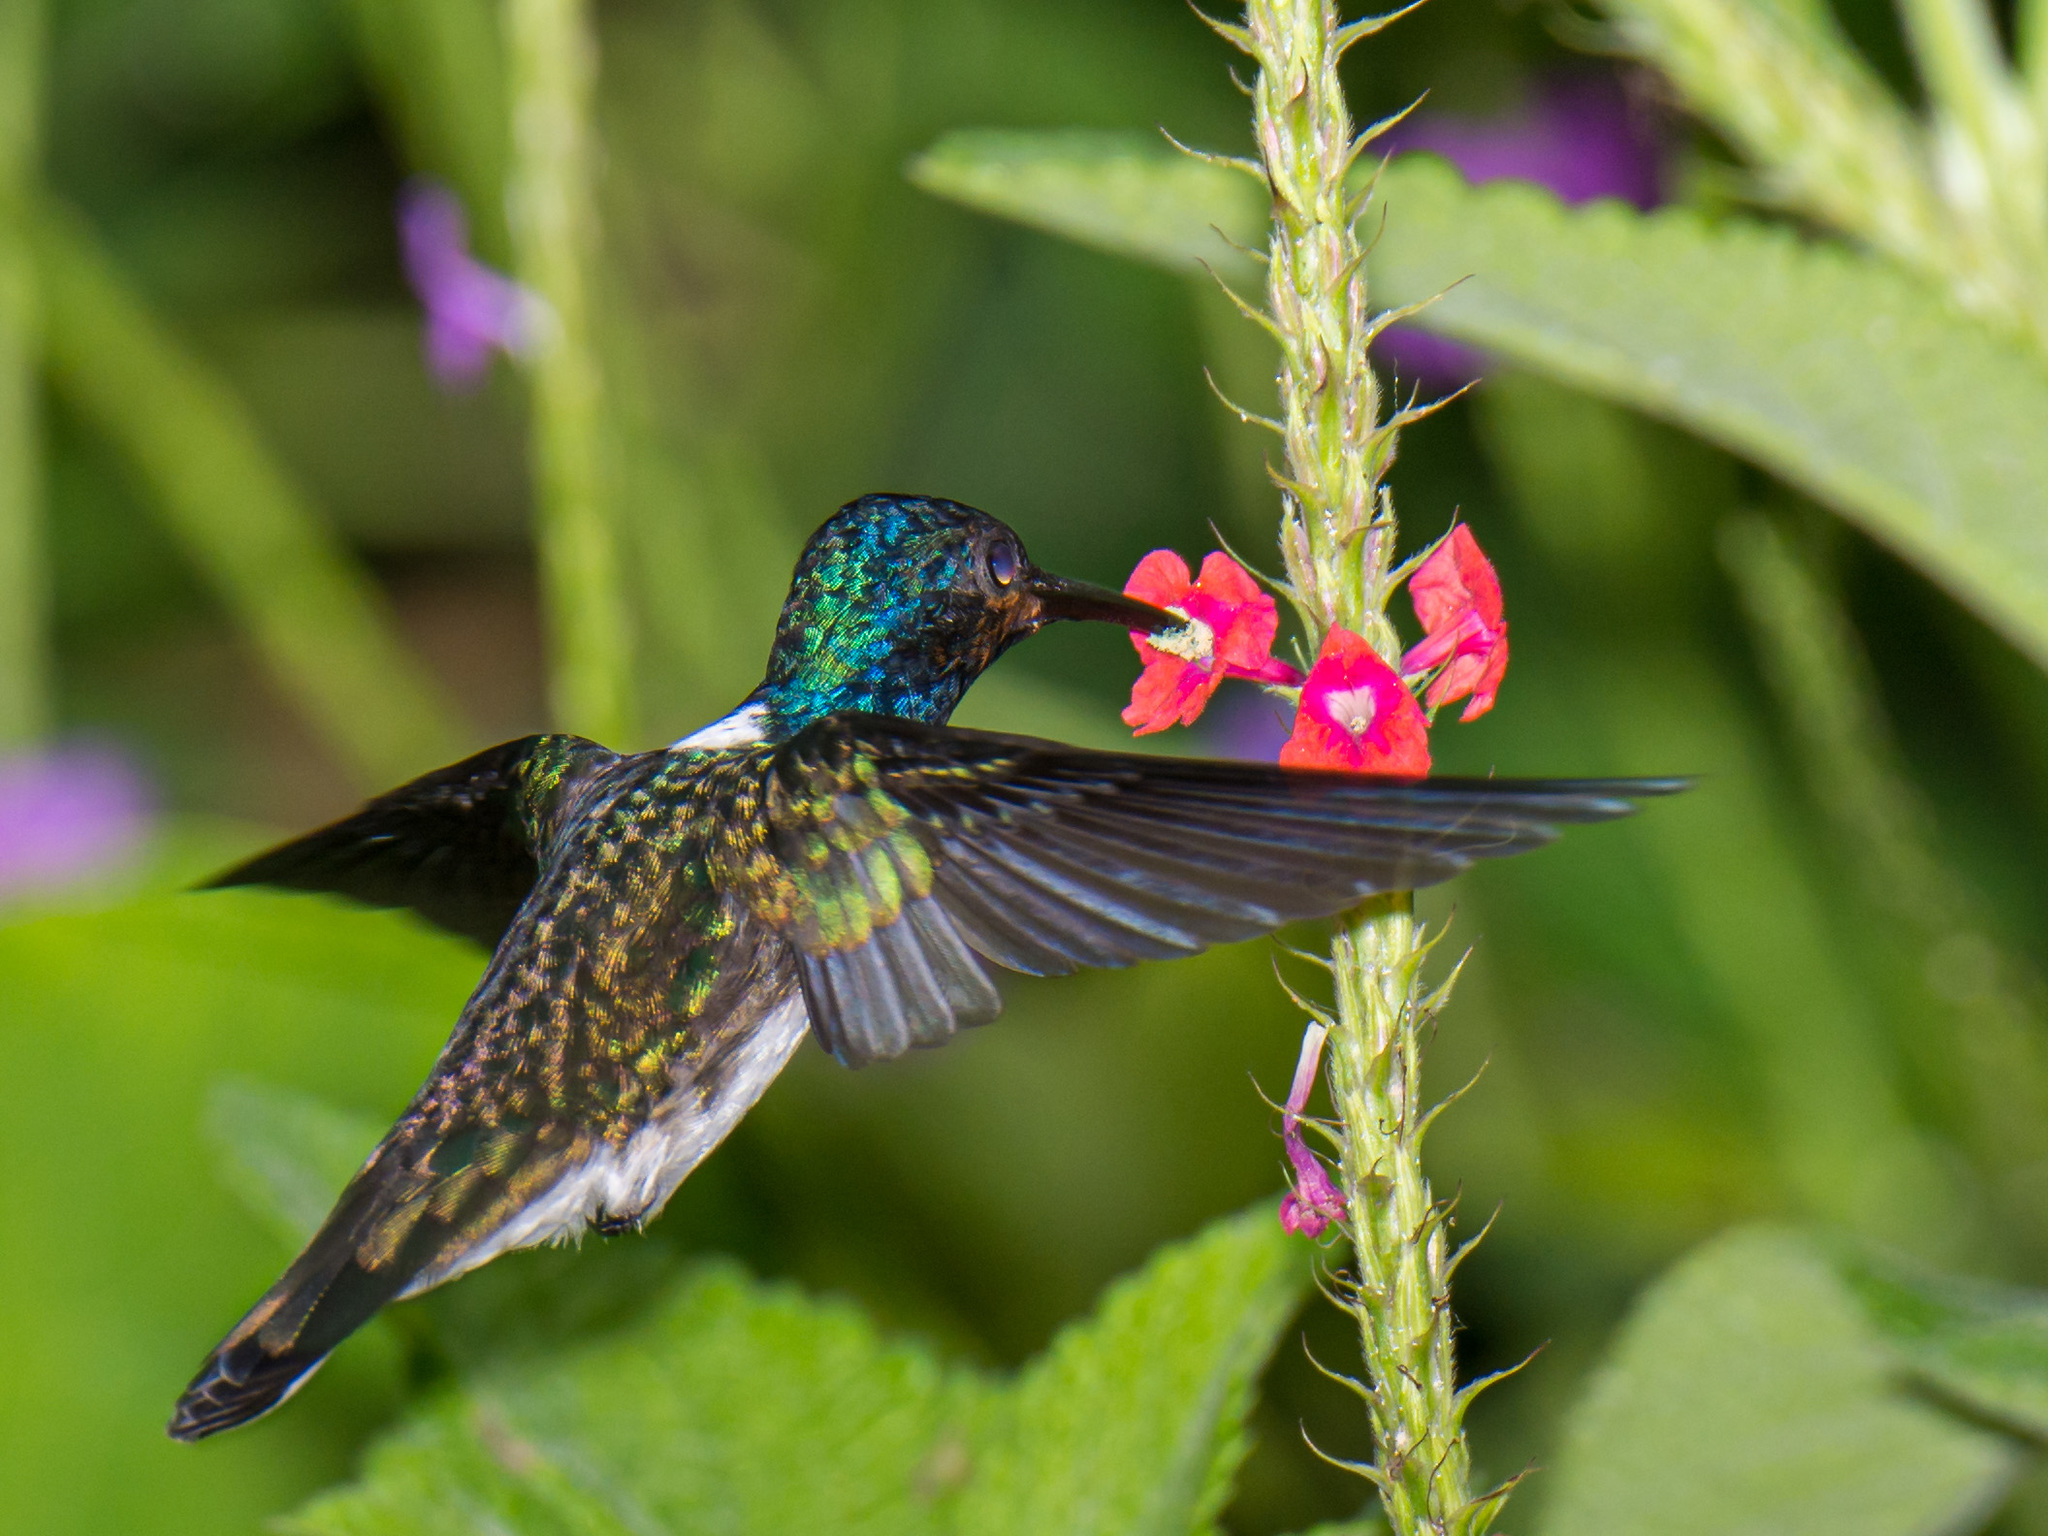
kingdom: Animalia
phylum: Chordata
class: Aves
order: Apodiformes
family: Trochilidae
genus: Florisuga
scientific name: Florisuga mellivora
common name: White-necked jacobin
